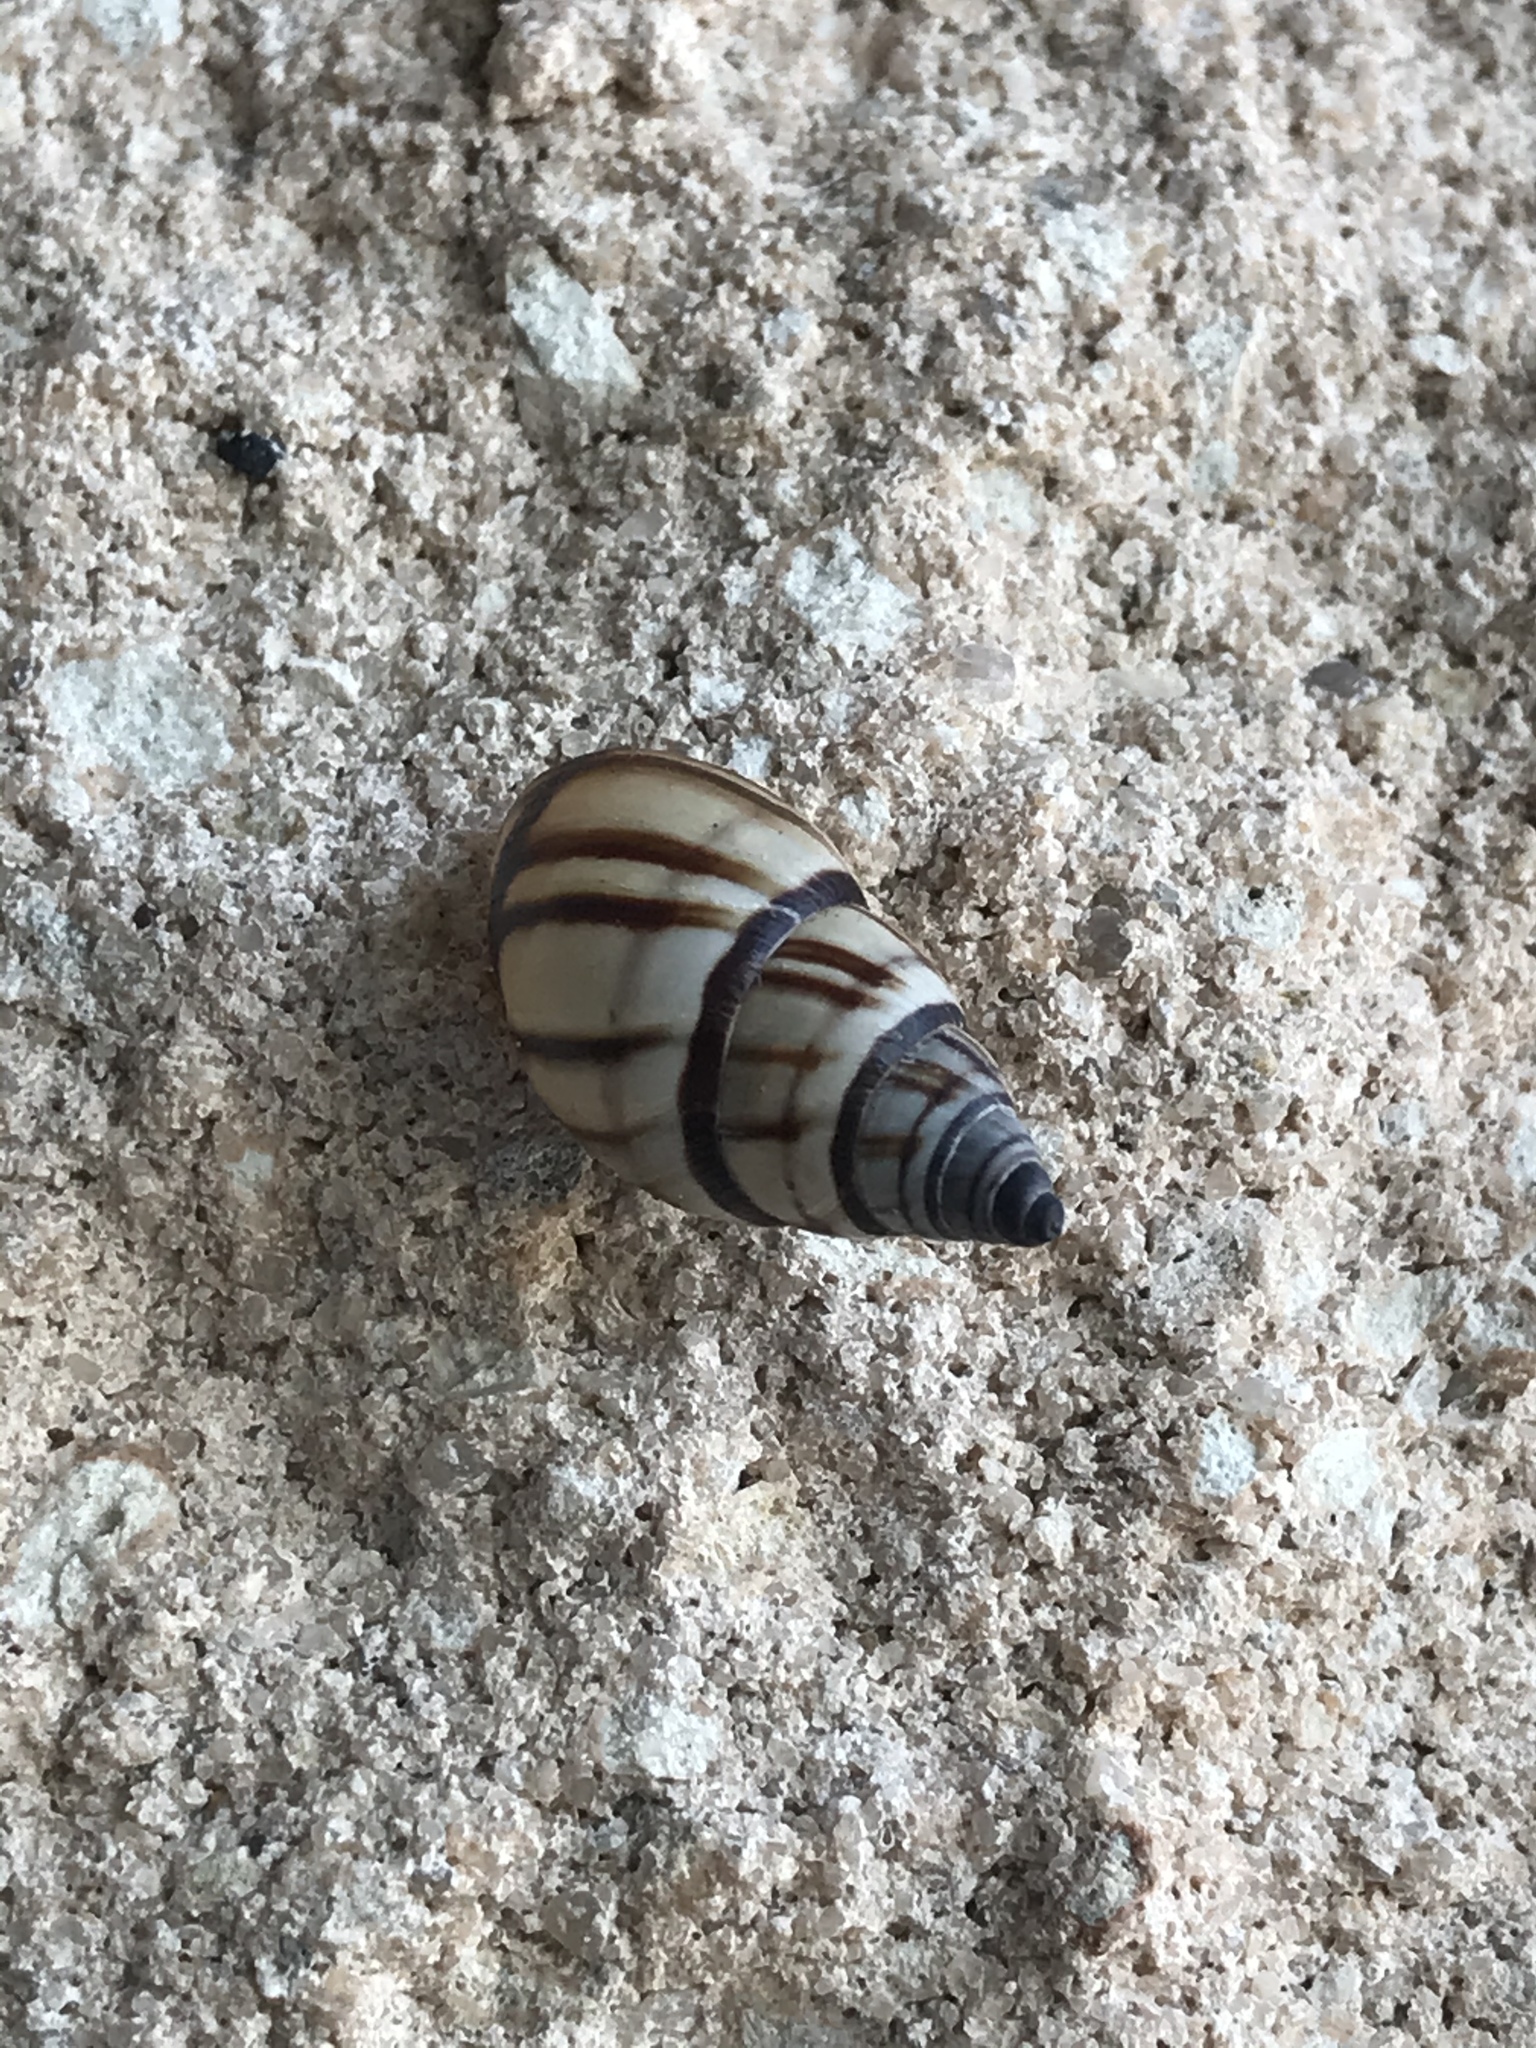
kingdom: Animalia
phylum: Mollusca
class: Gastropoda
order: Stylommatophora
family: Bulimulidae
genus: Drymaeus
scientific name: Drymaeus
